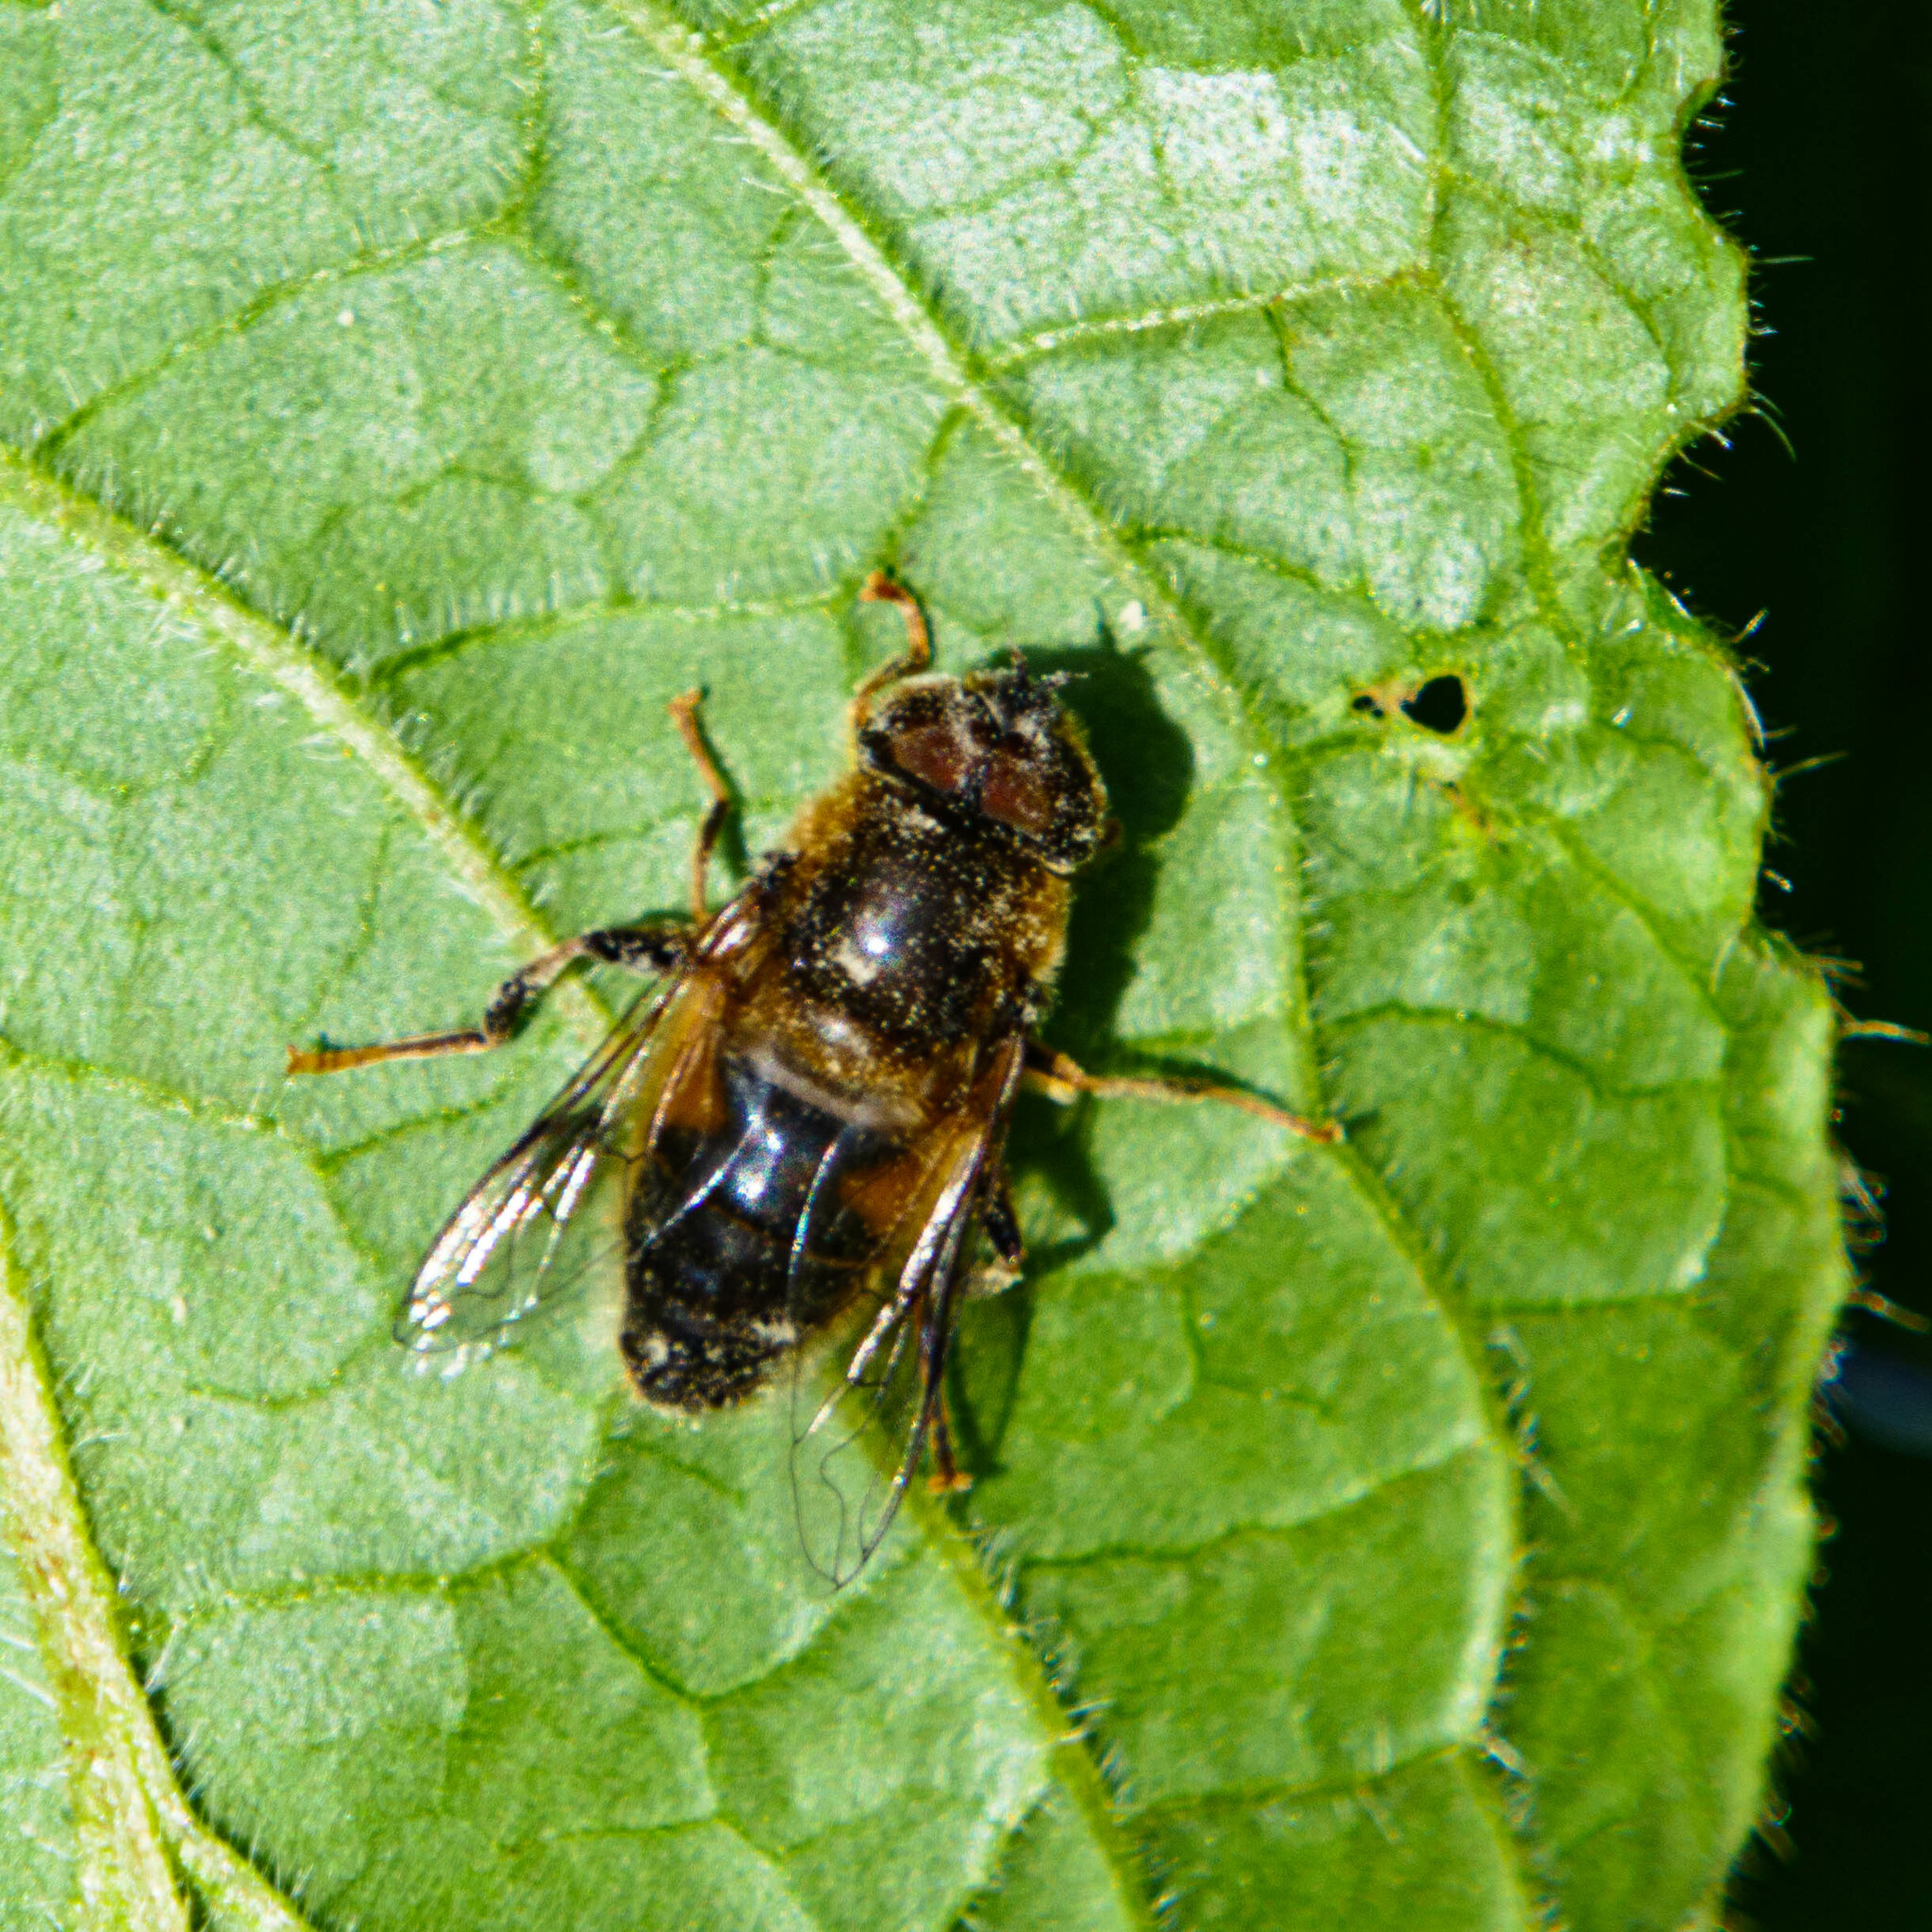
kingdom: Animalia
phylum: Arthropoda
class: Insecta
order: Diptera
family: Syrphidae
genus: Eristalis
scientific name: Eristalis pertinax
